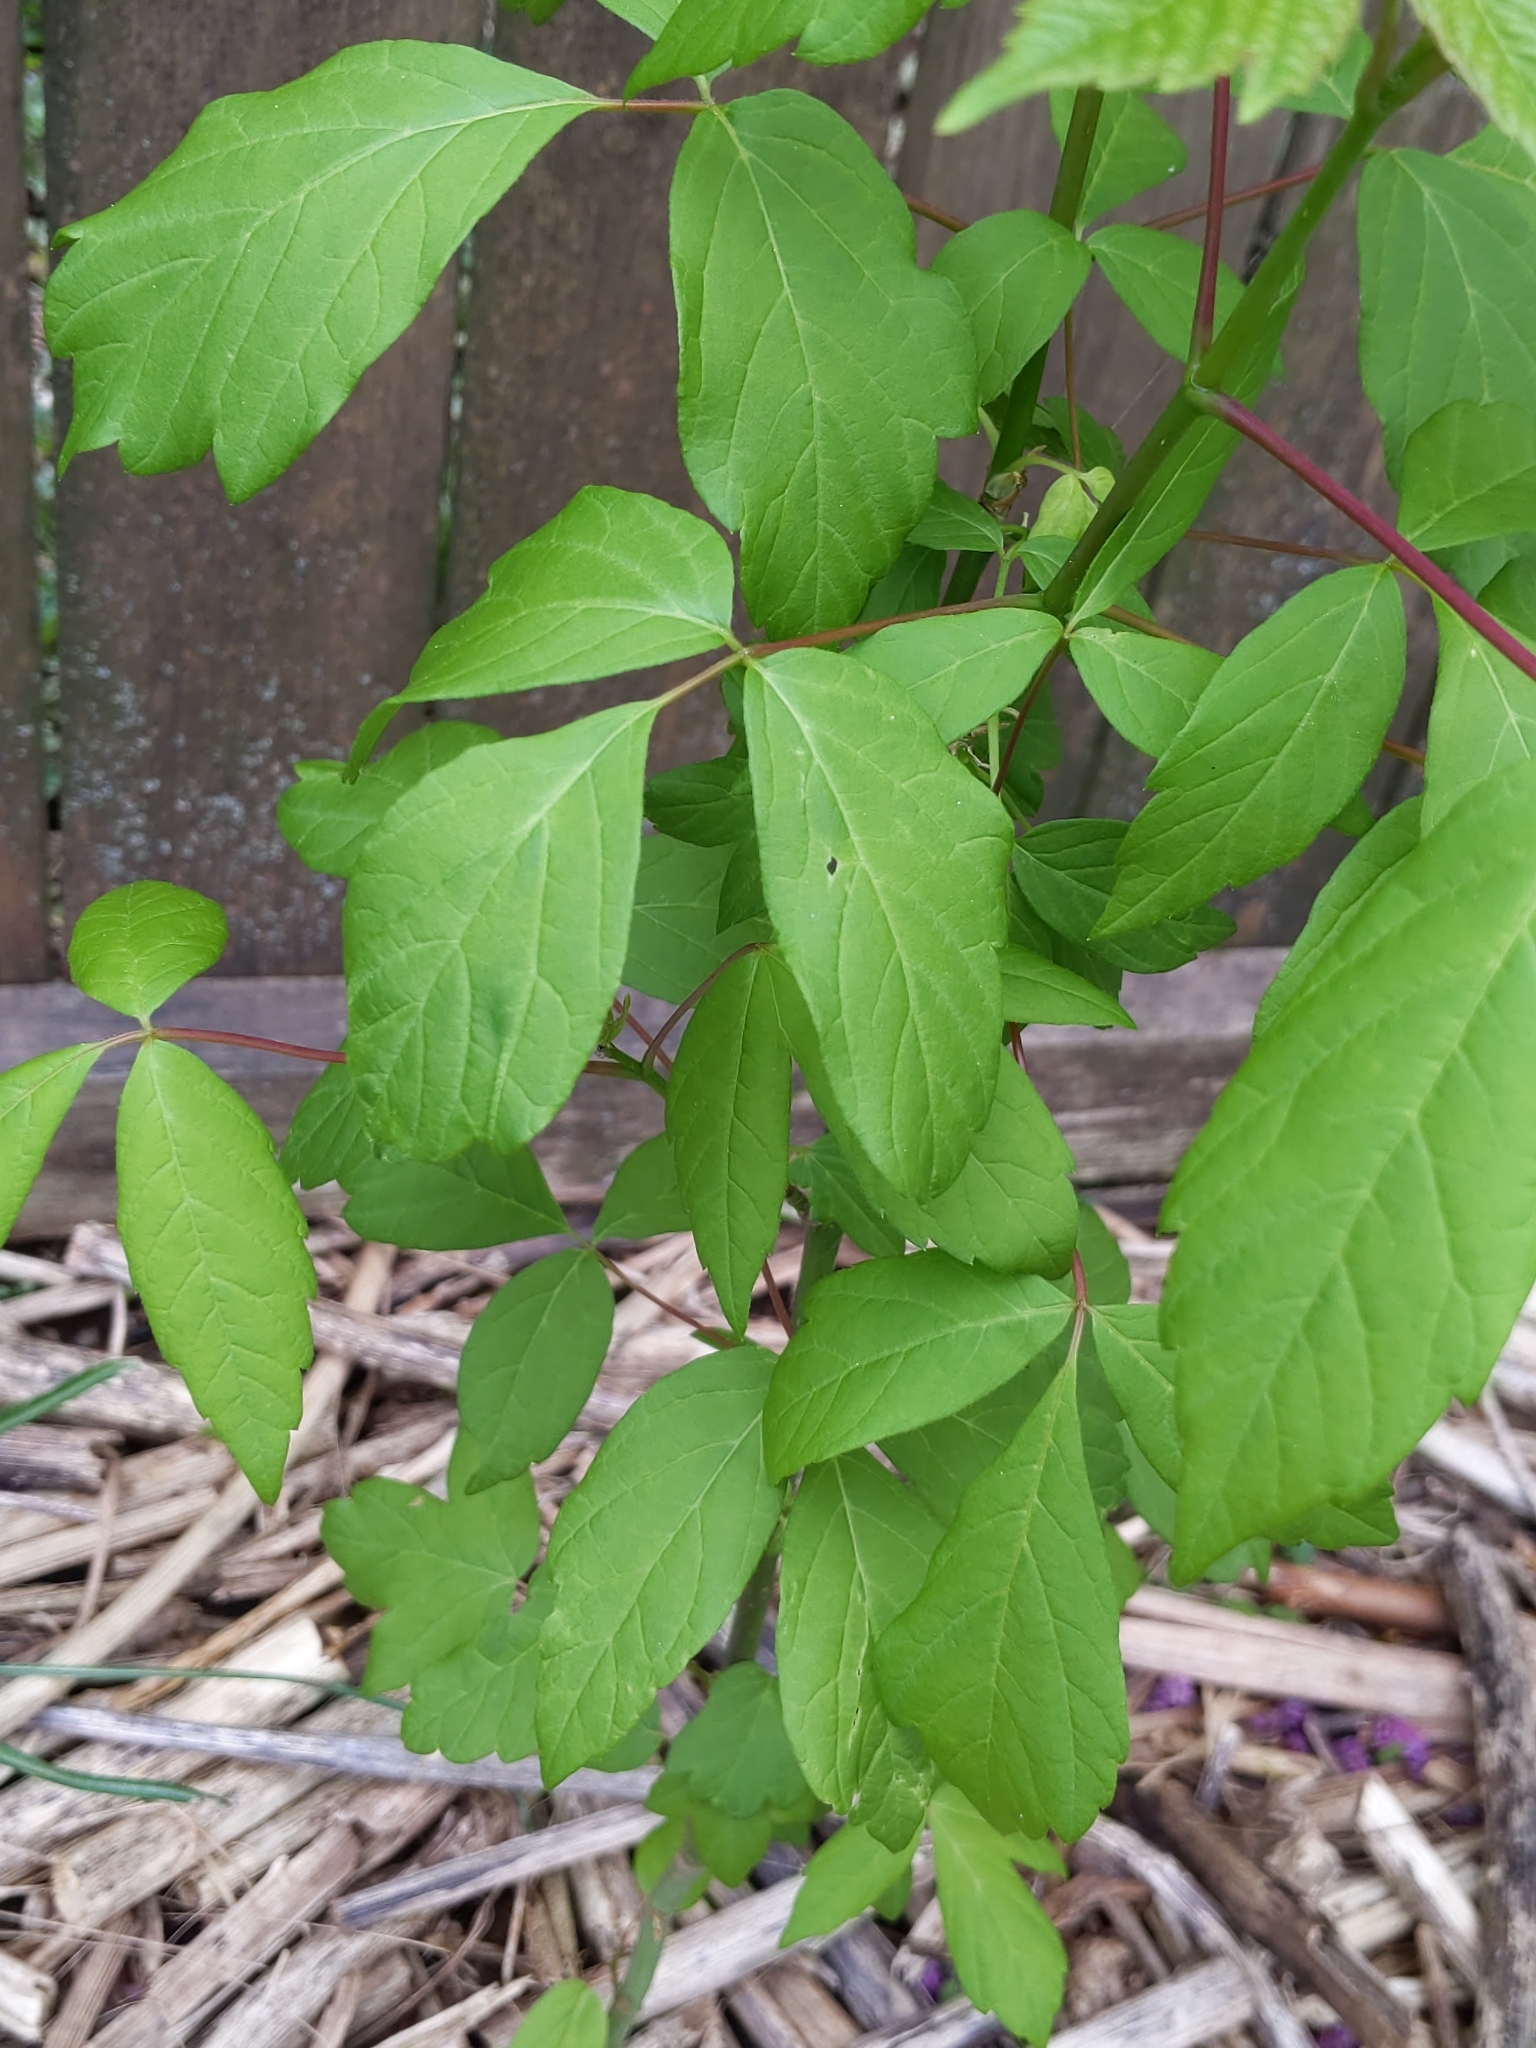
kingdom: Plantae
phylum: Tracheophyta
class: Magnoliopsida
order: Sapindales
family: Sapindaceae
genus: Acer
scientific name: Acer negundo
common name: Ashleaf maple
